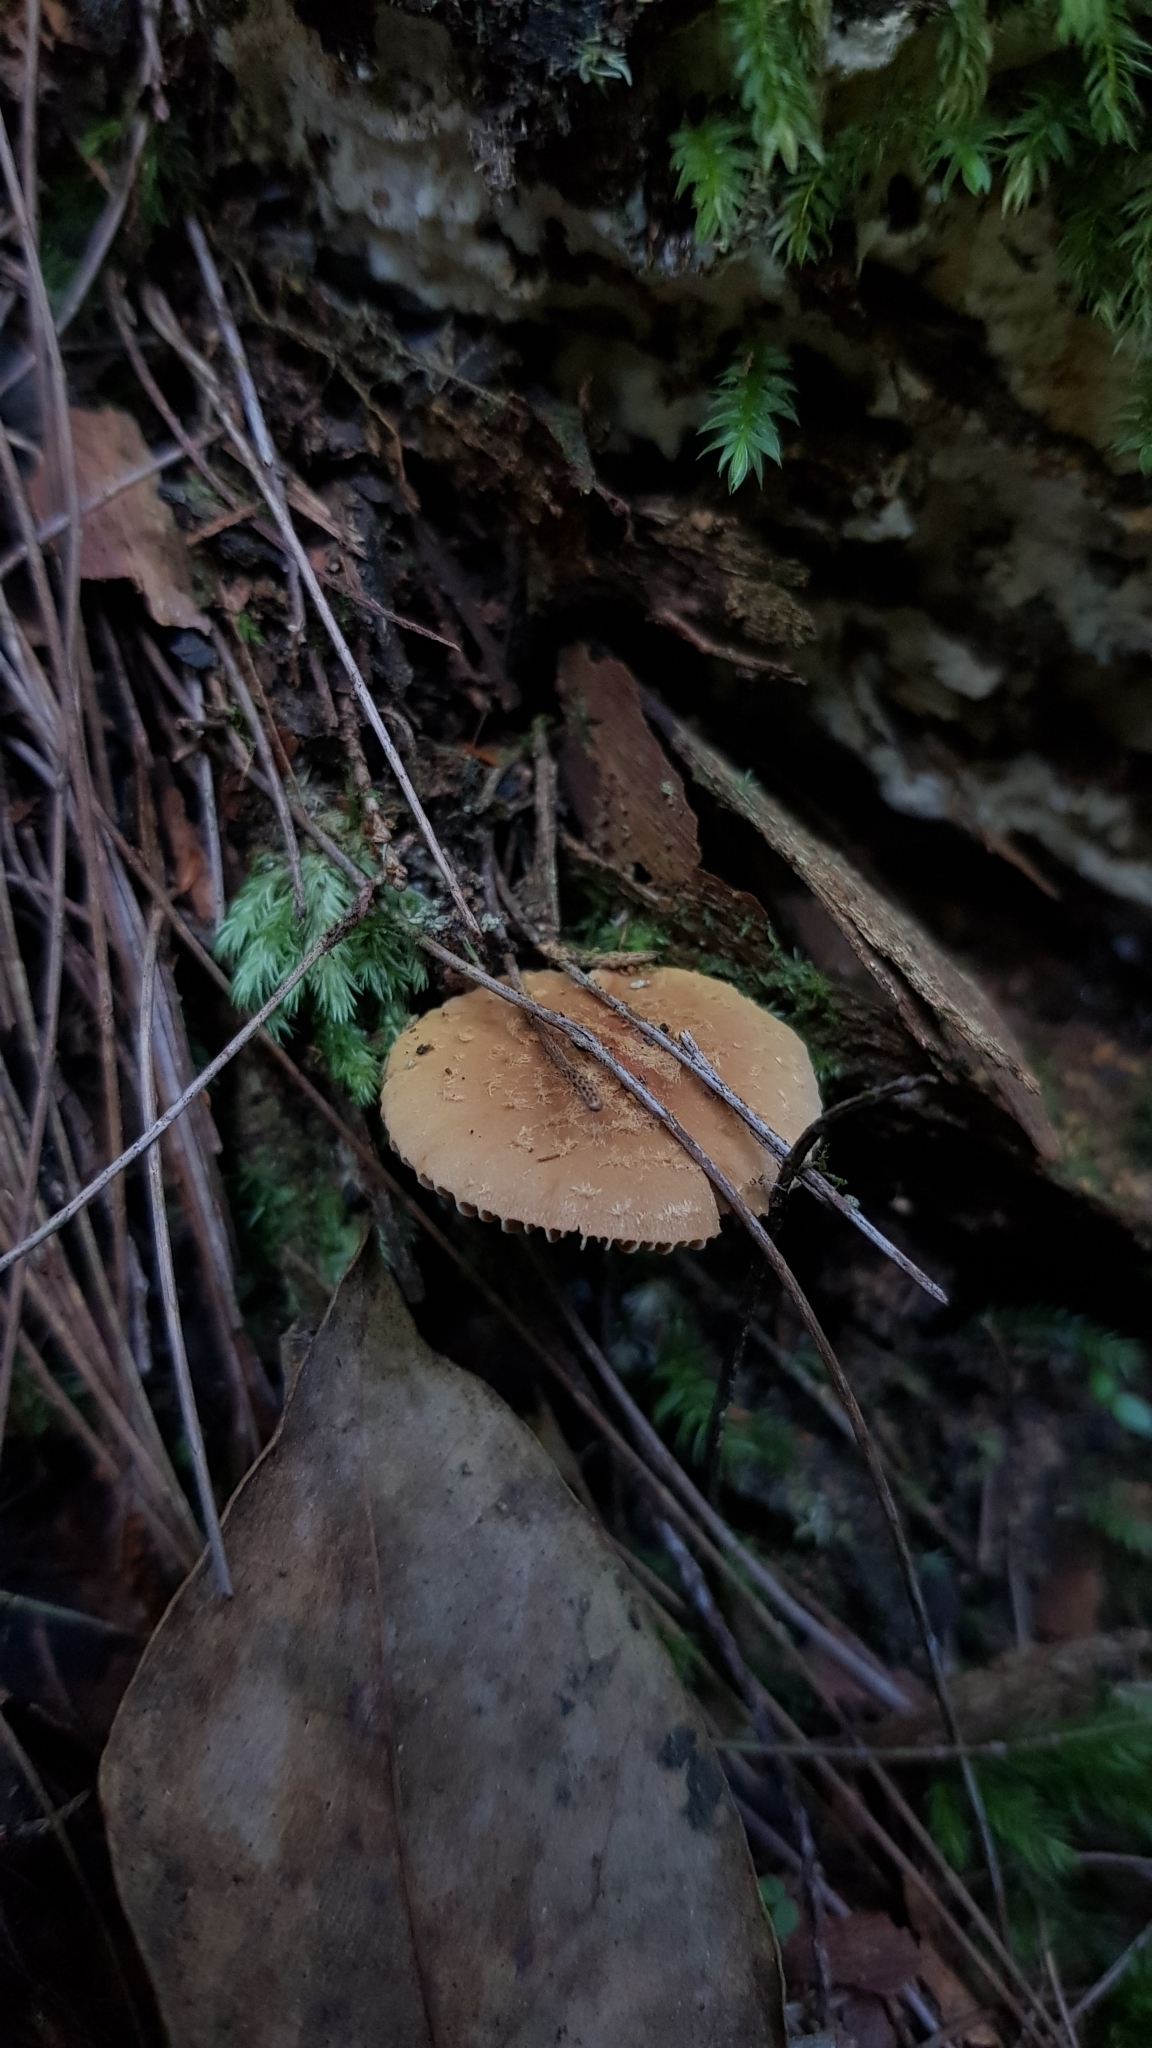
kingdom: Fungi
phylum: Basidiomycota
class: Agaricomycetes
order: Agaricales
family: Bolbitiaceae
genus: Descolea
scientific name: Descolea recedens
